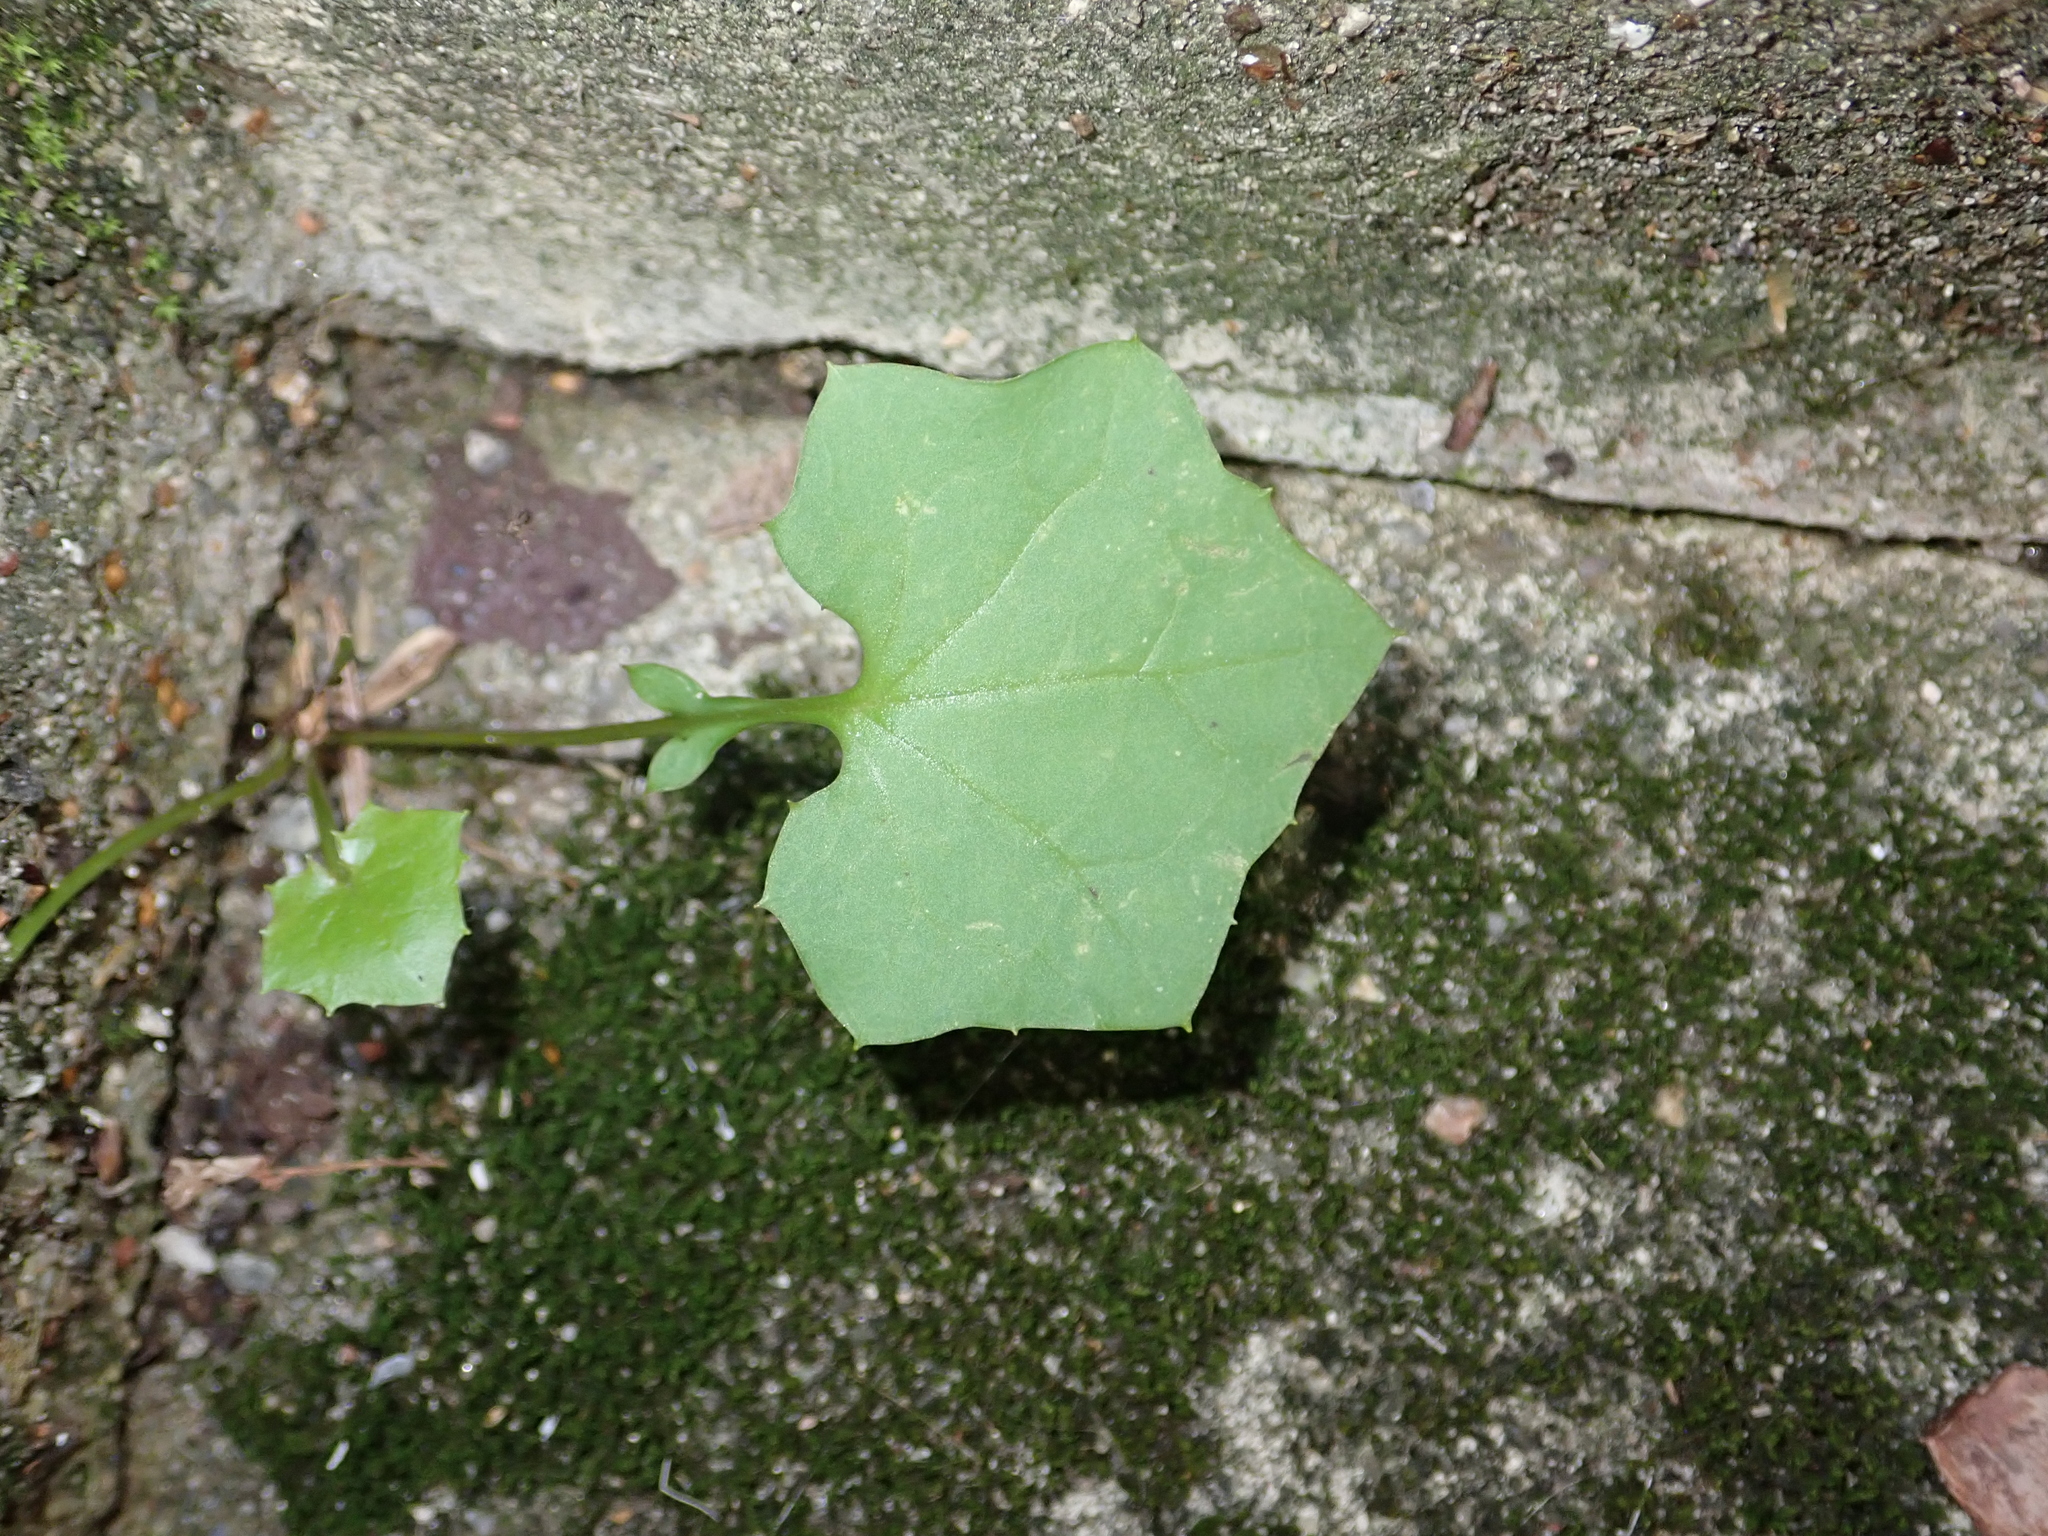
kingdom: Plantae
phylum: Tracheophyta
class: Magnoliopsida
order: Asterales
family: Asteraceae
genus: Mycelis
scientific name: Mycelis muralis
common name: Wall lettuce
